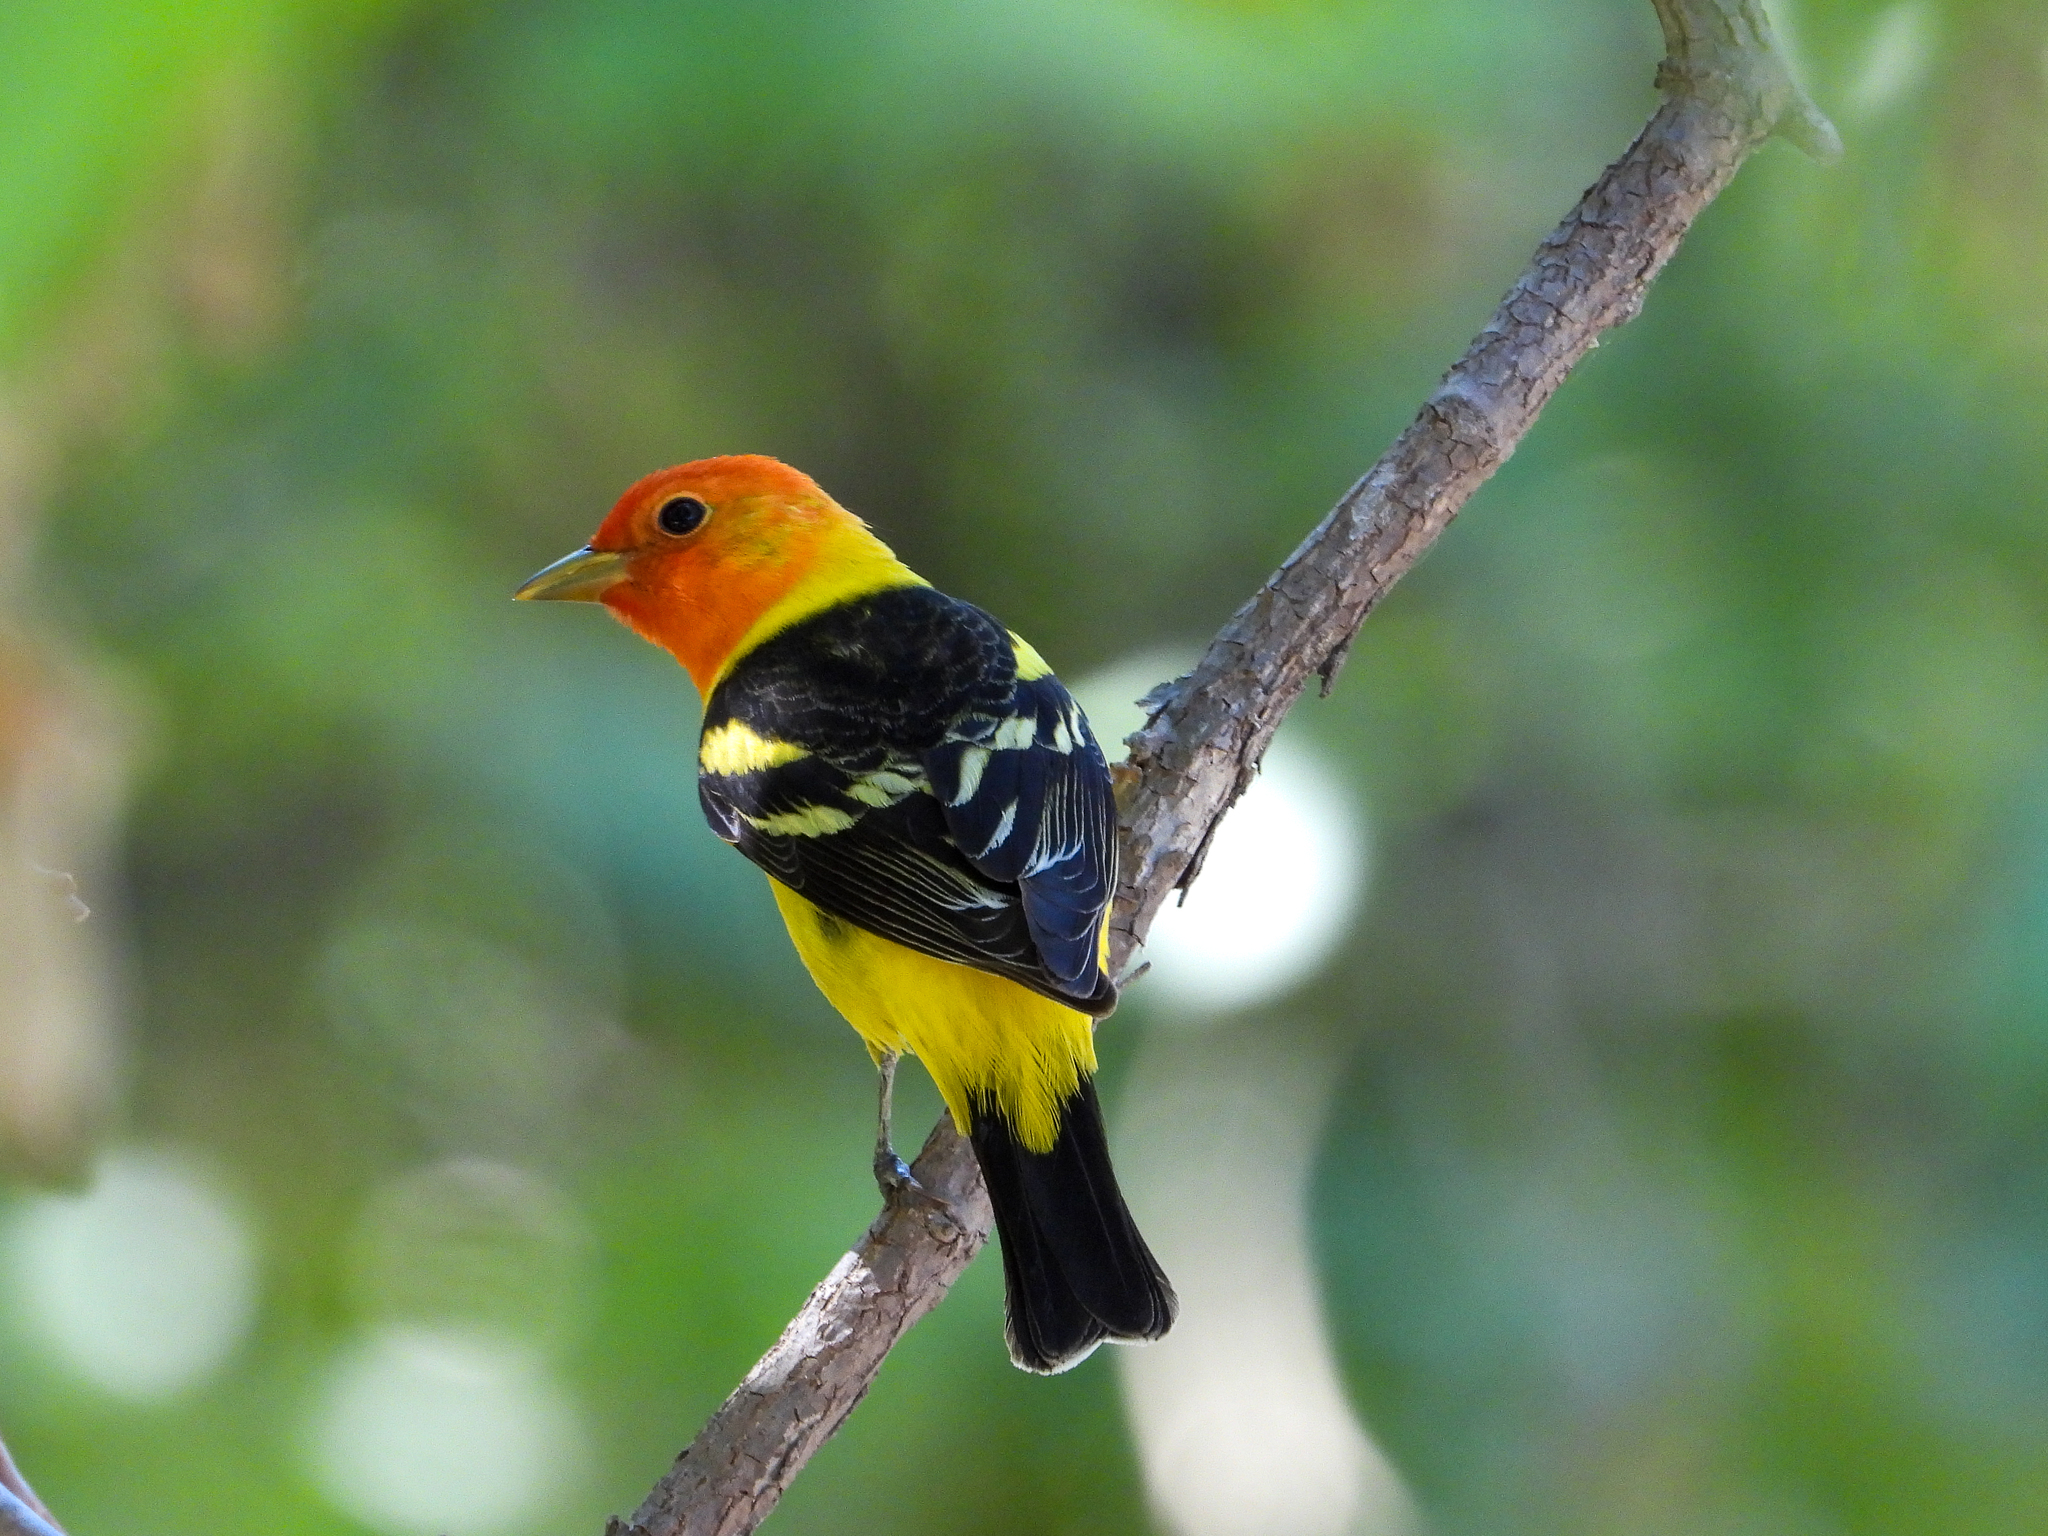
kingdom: Animalia
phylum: Chordata
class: Aves
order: Passeriformes
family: Cardinalidae
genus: Piranga
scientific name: Piranga ludoviciana
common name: Western tanager
